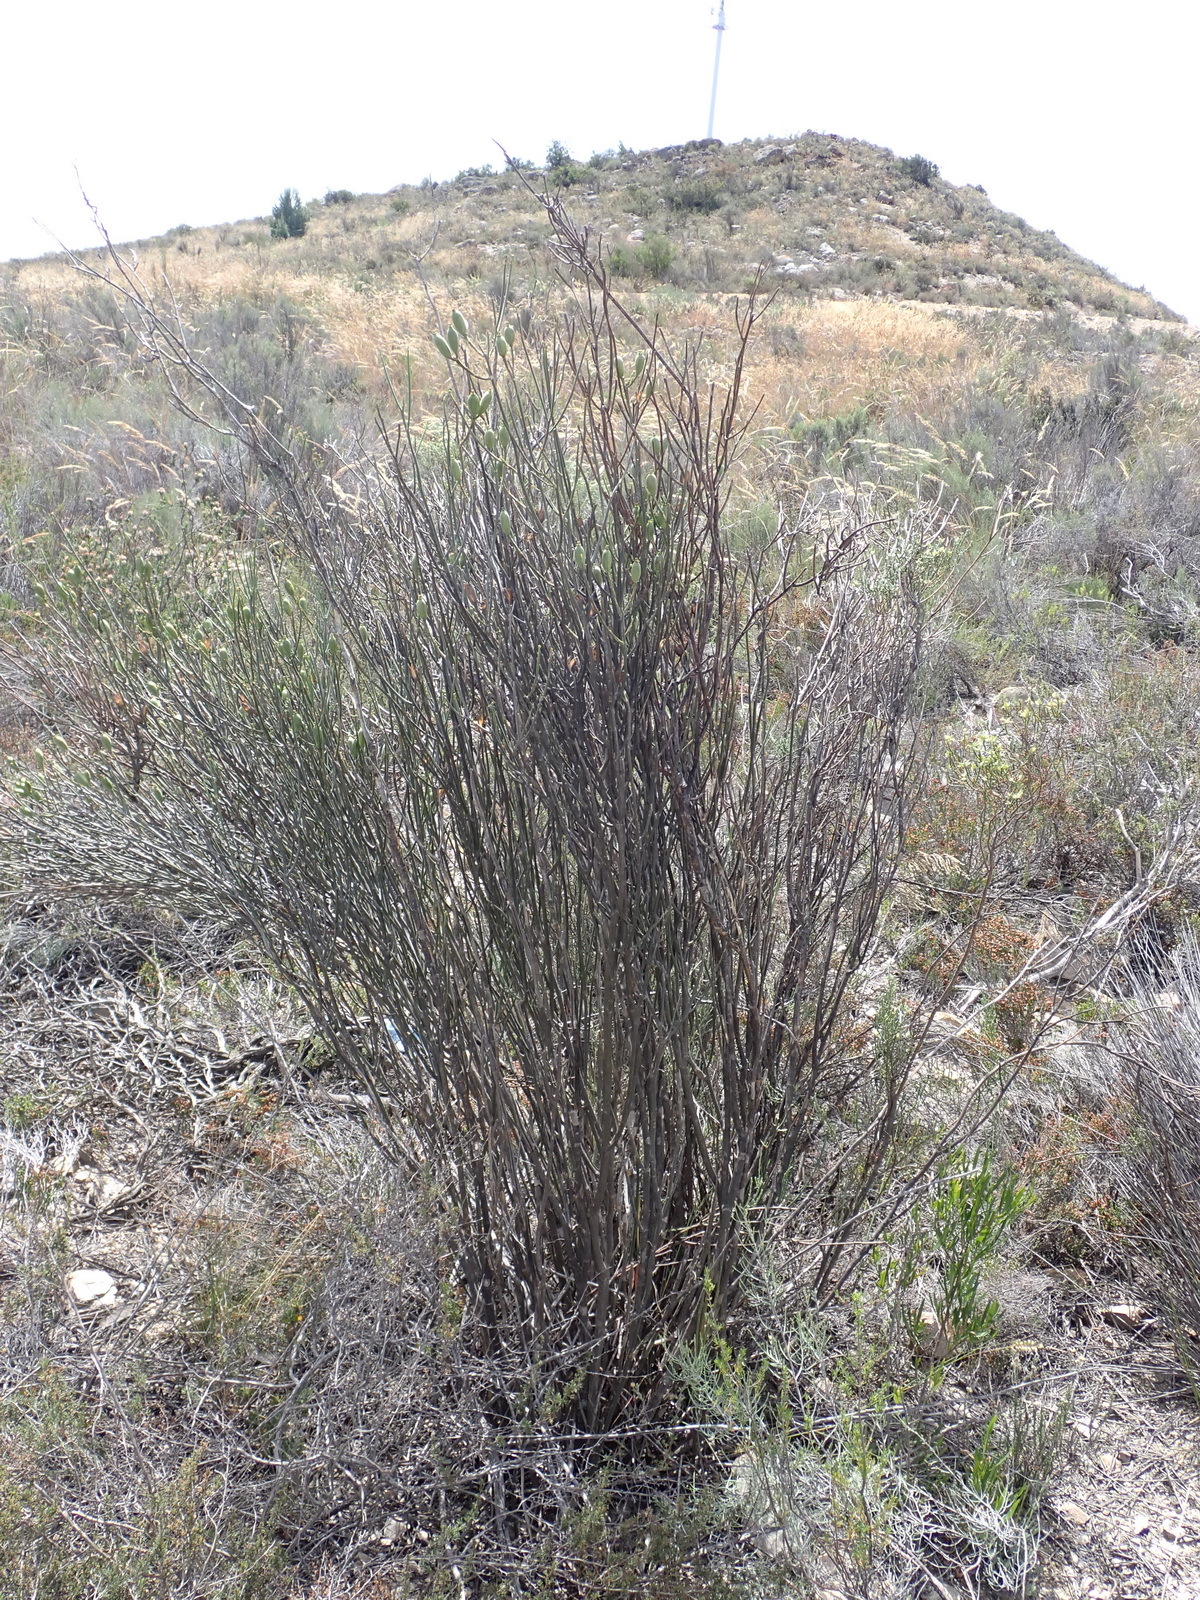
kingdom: Plantae
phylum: Tracheophyta
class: Magnoliopsida
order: Solanales
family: Montiniaceae
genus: Montinia
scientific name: Montinia caryophyllacea
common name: Wild clove-bush
